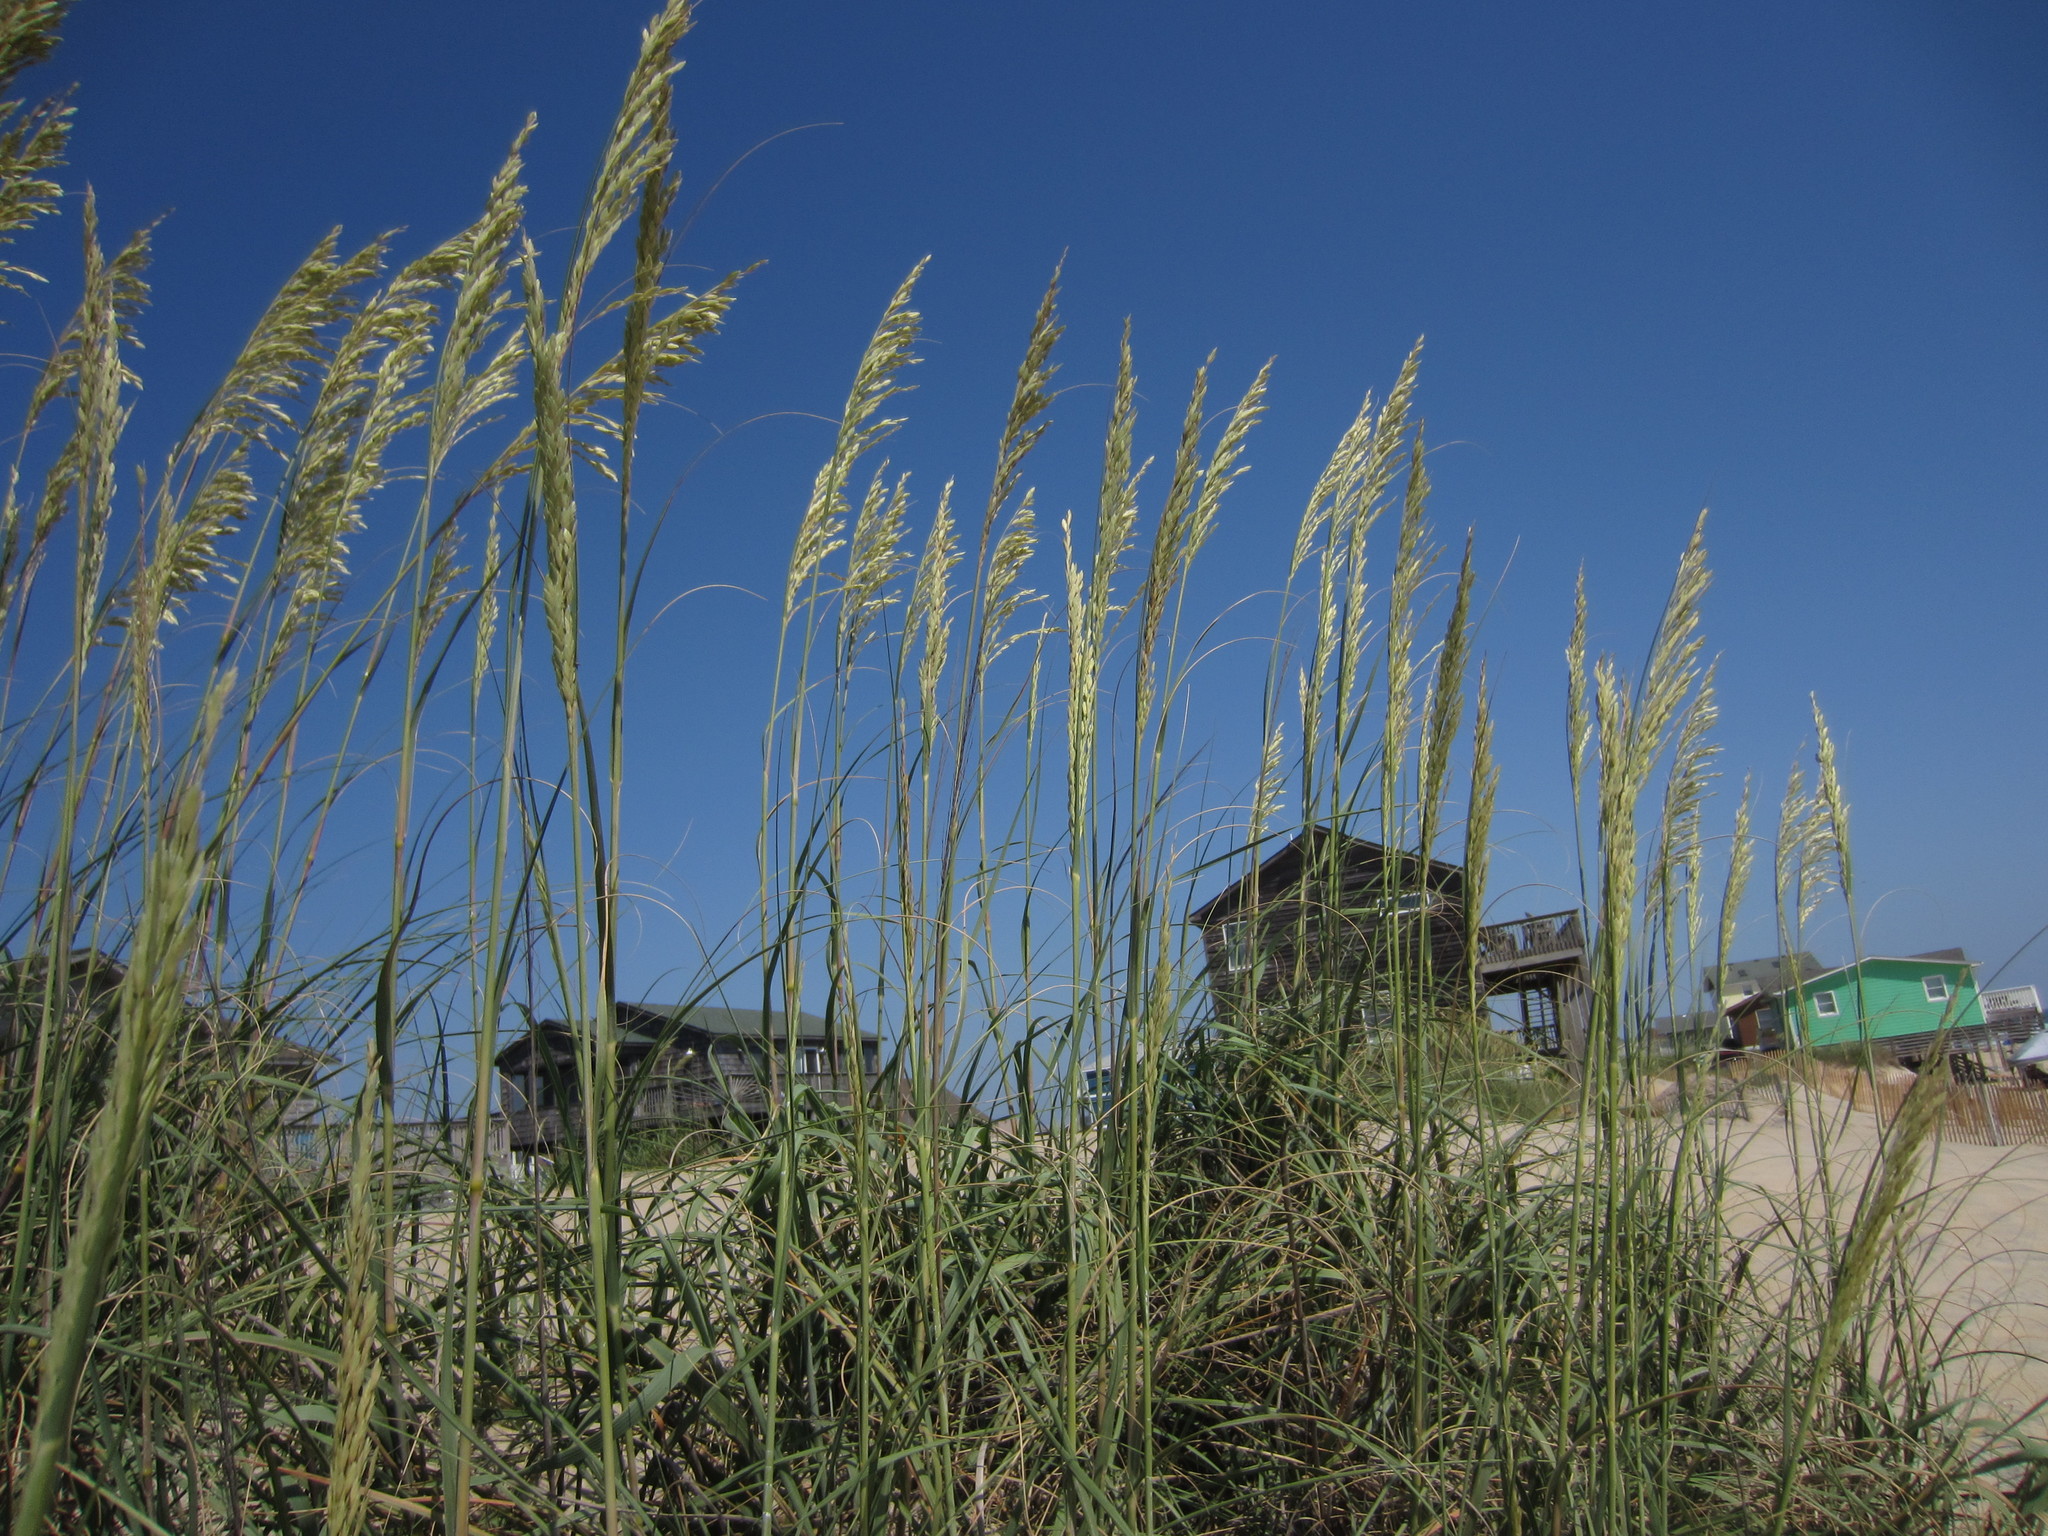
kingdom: Plantae
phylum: Tracheophyta
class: Liliopsida
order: Poales
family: Poaceae
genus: Uniola
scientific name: Uniola paniculata
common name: Seaside-oats
